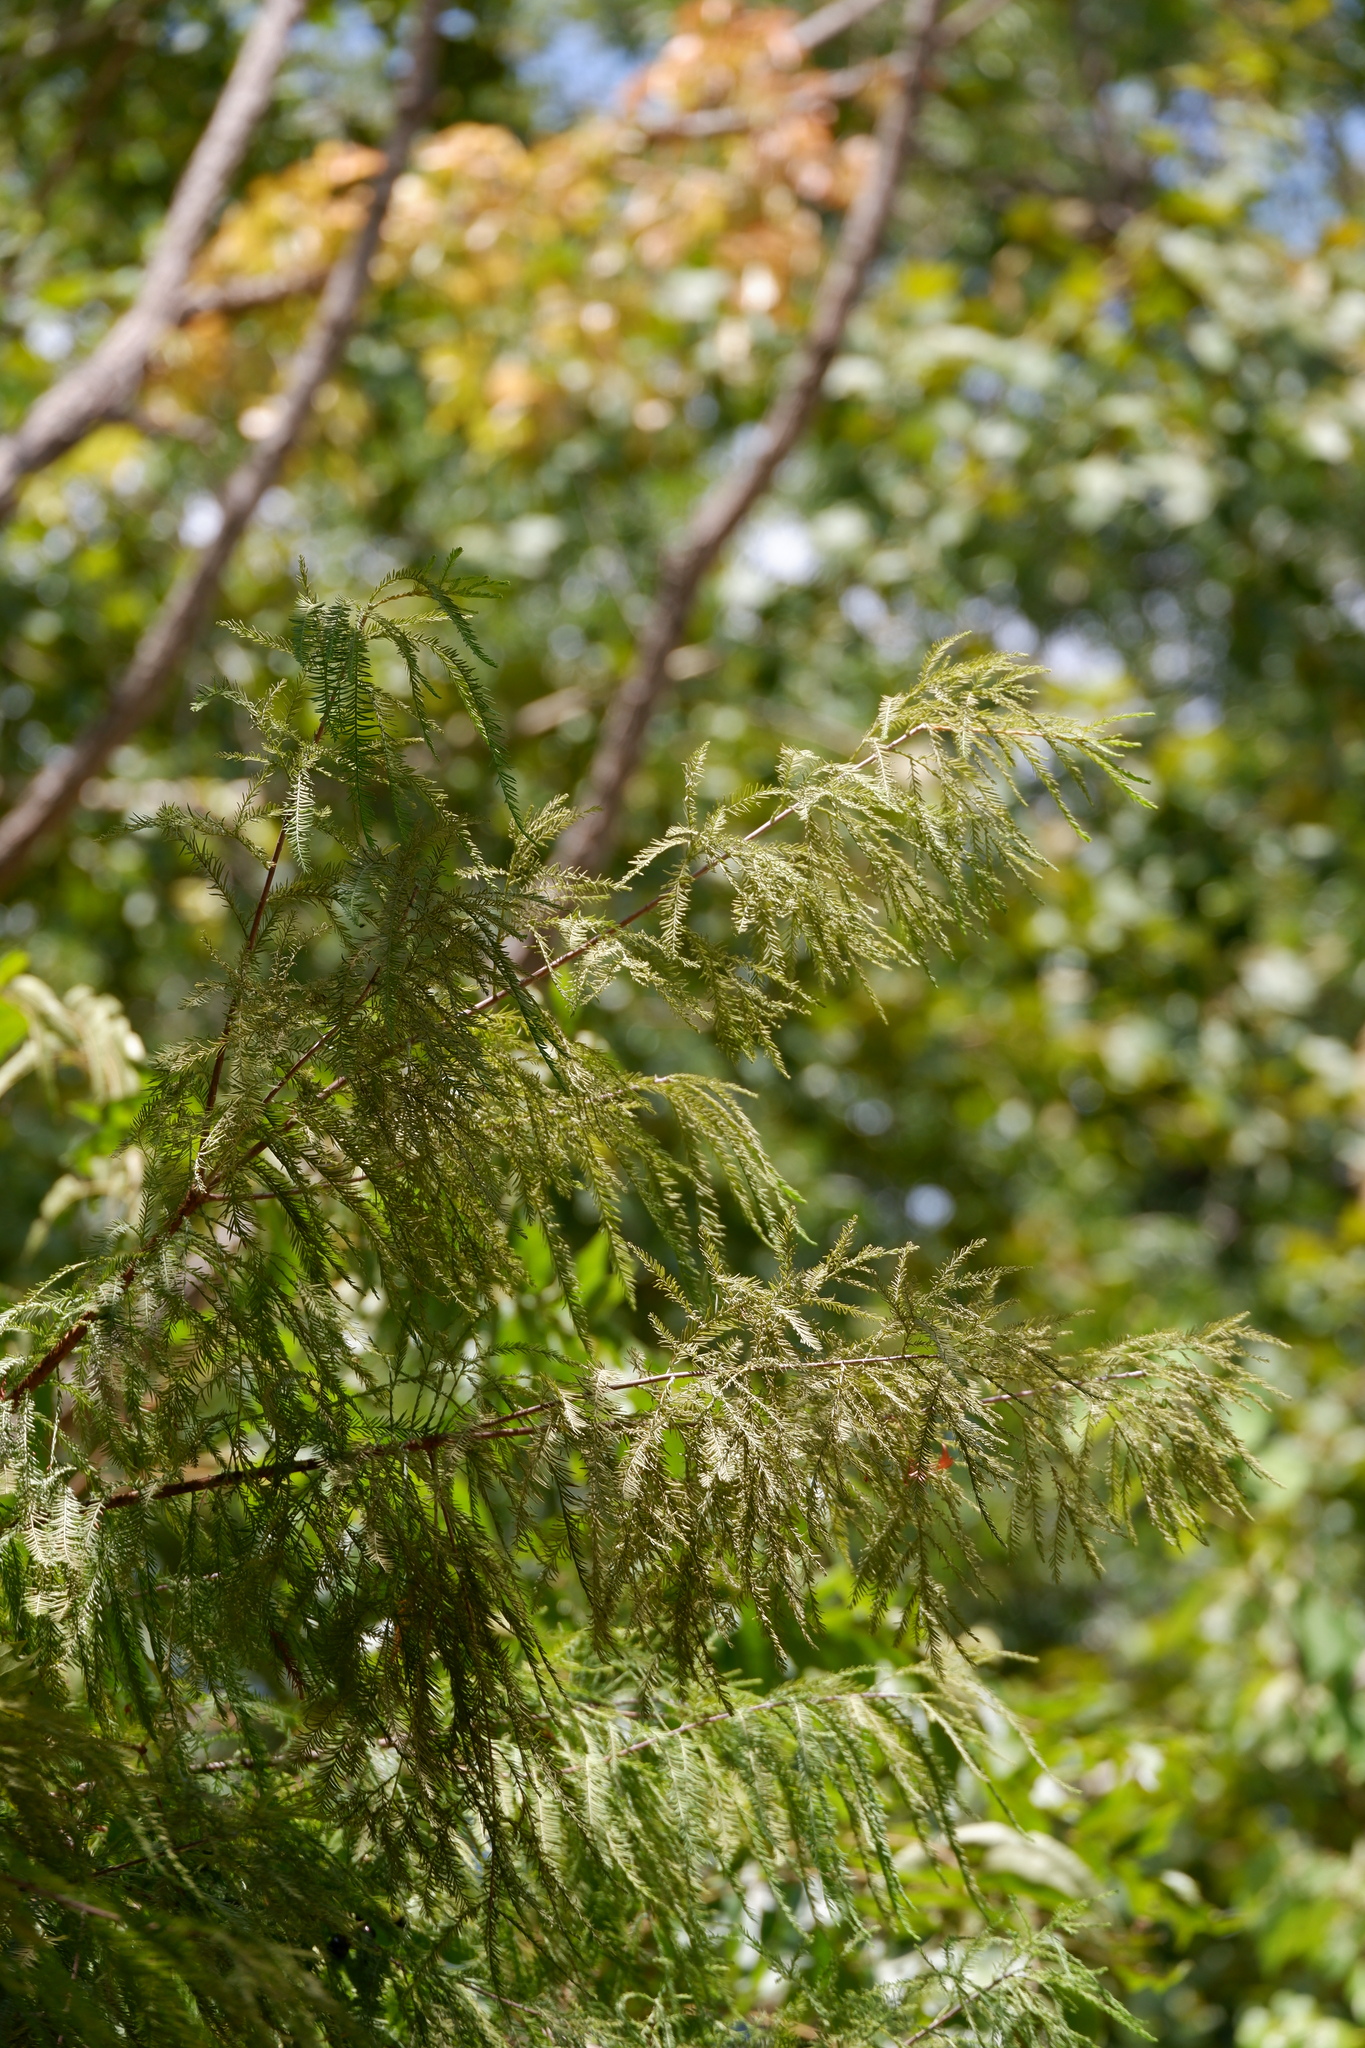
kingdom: Plantae
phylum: Tracheophyta
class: Pinopsida
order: Pinales
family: Cupressaceae
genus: Taxodium
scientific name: Taxodium distichum
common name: Bald cypress
